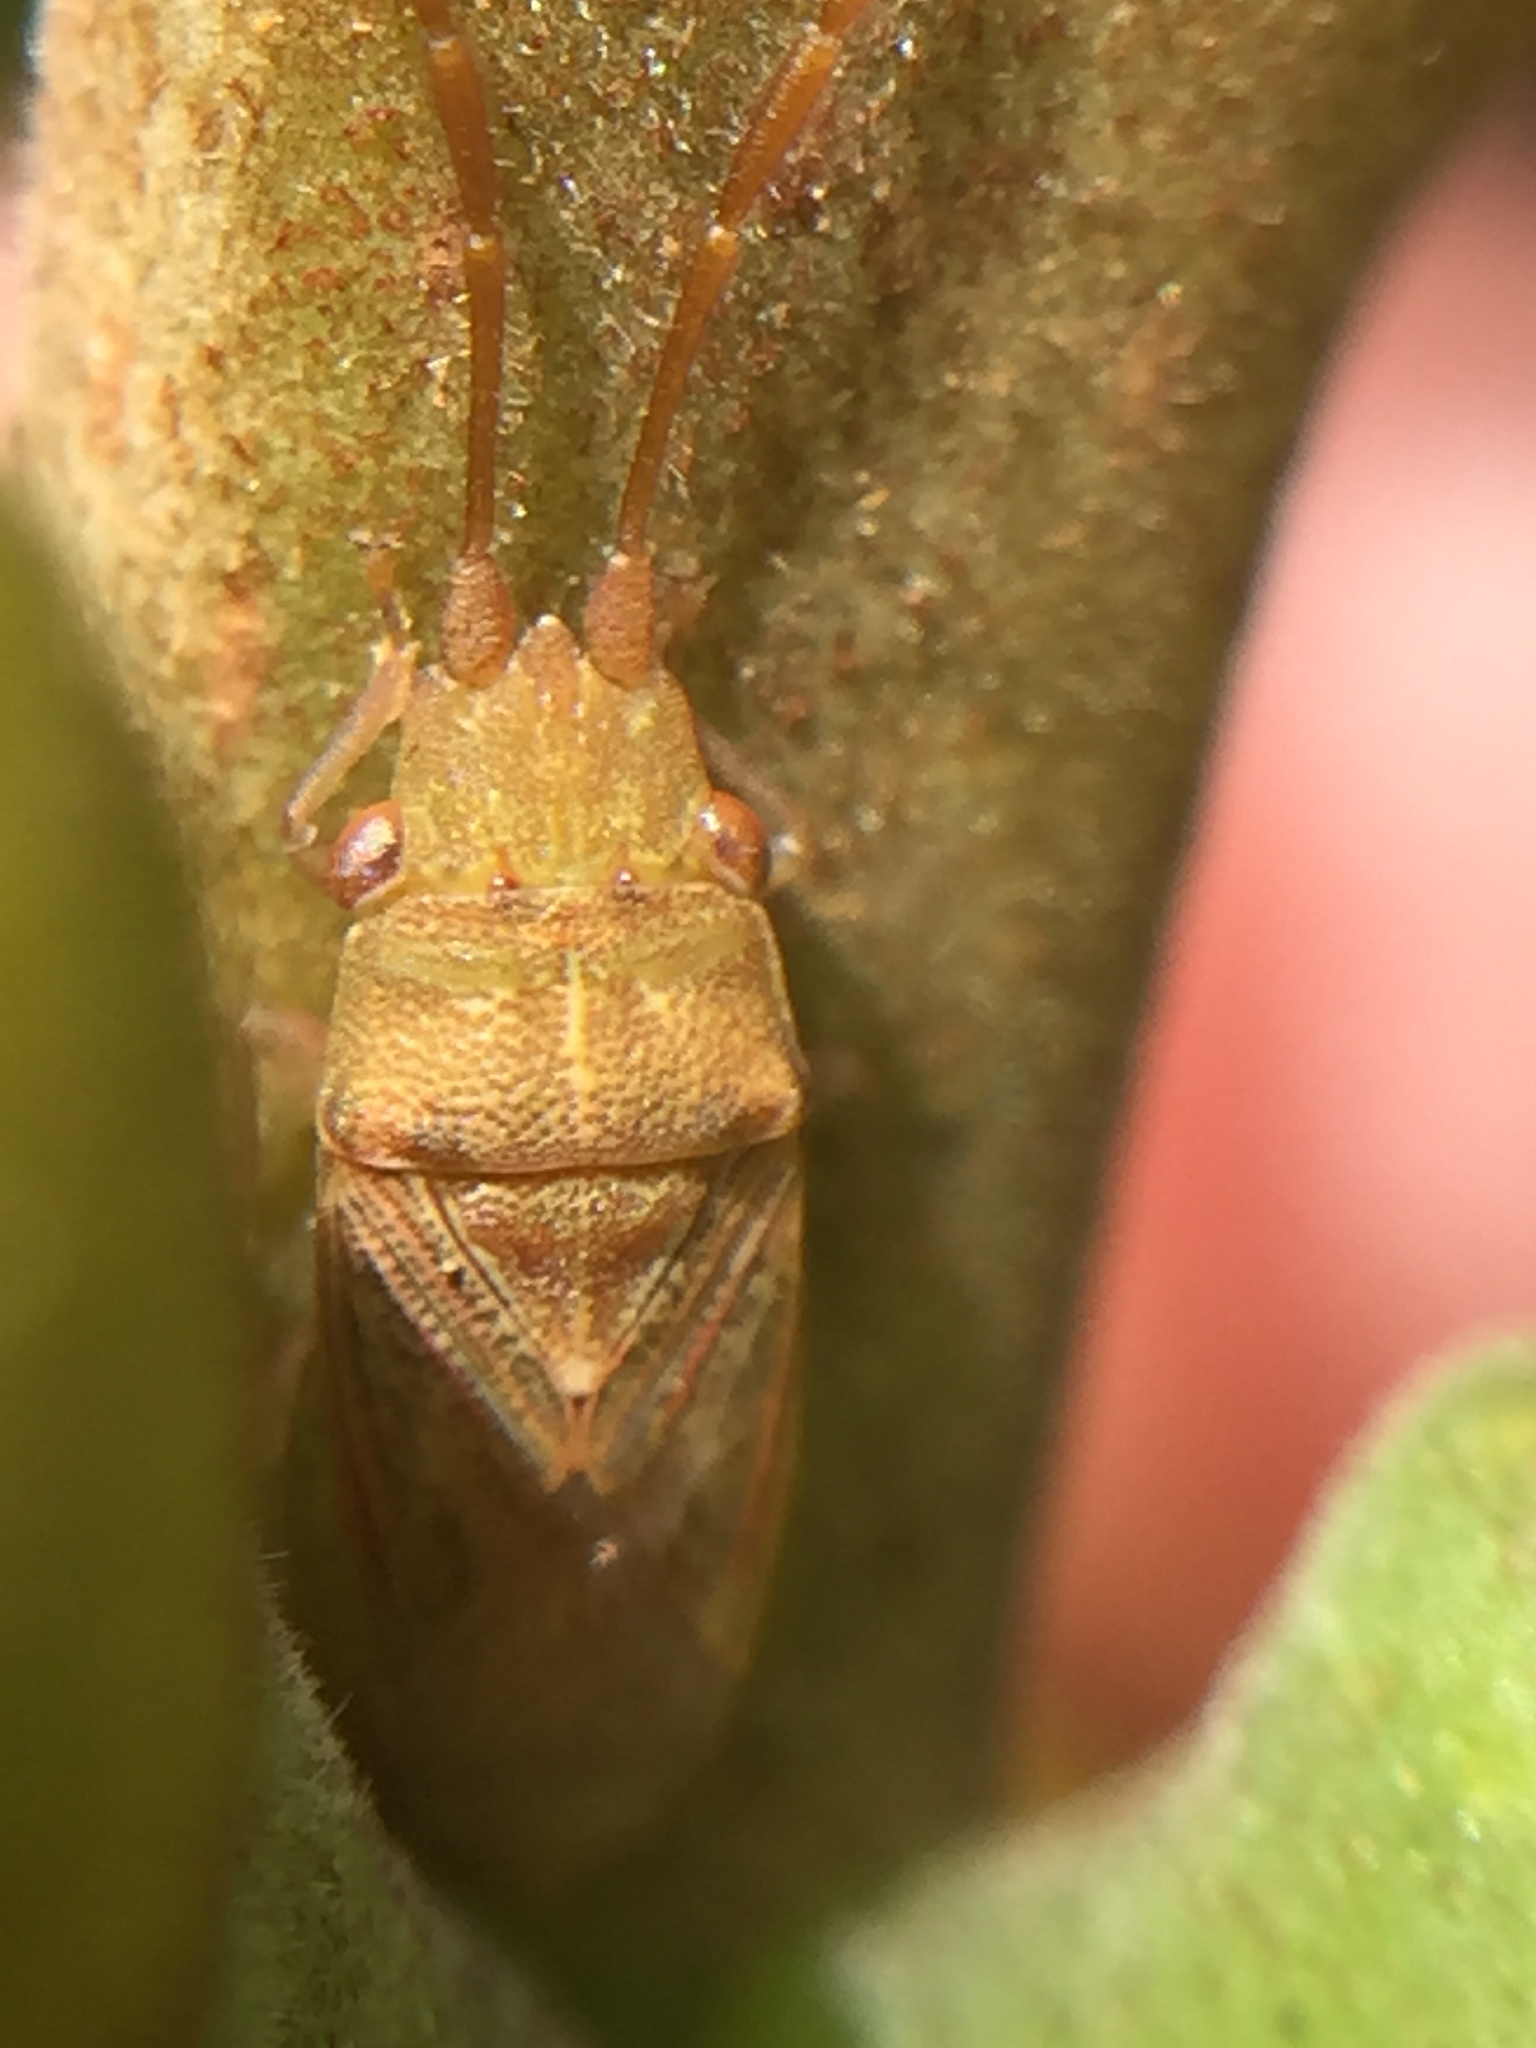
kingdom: Animalia
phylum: Arthropoda
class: Insecta
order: Hemiptera
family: Meschiidae
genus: Meschia
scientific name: Meschia barrowensis
